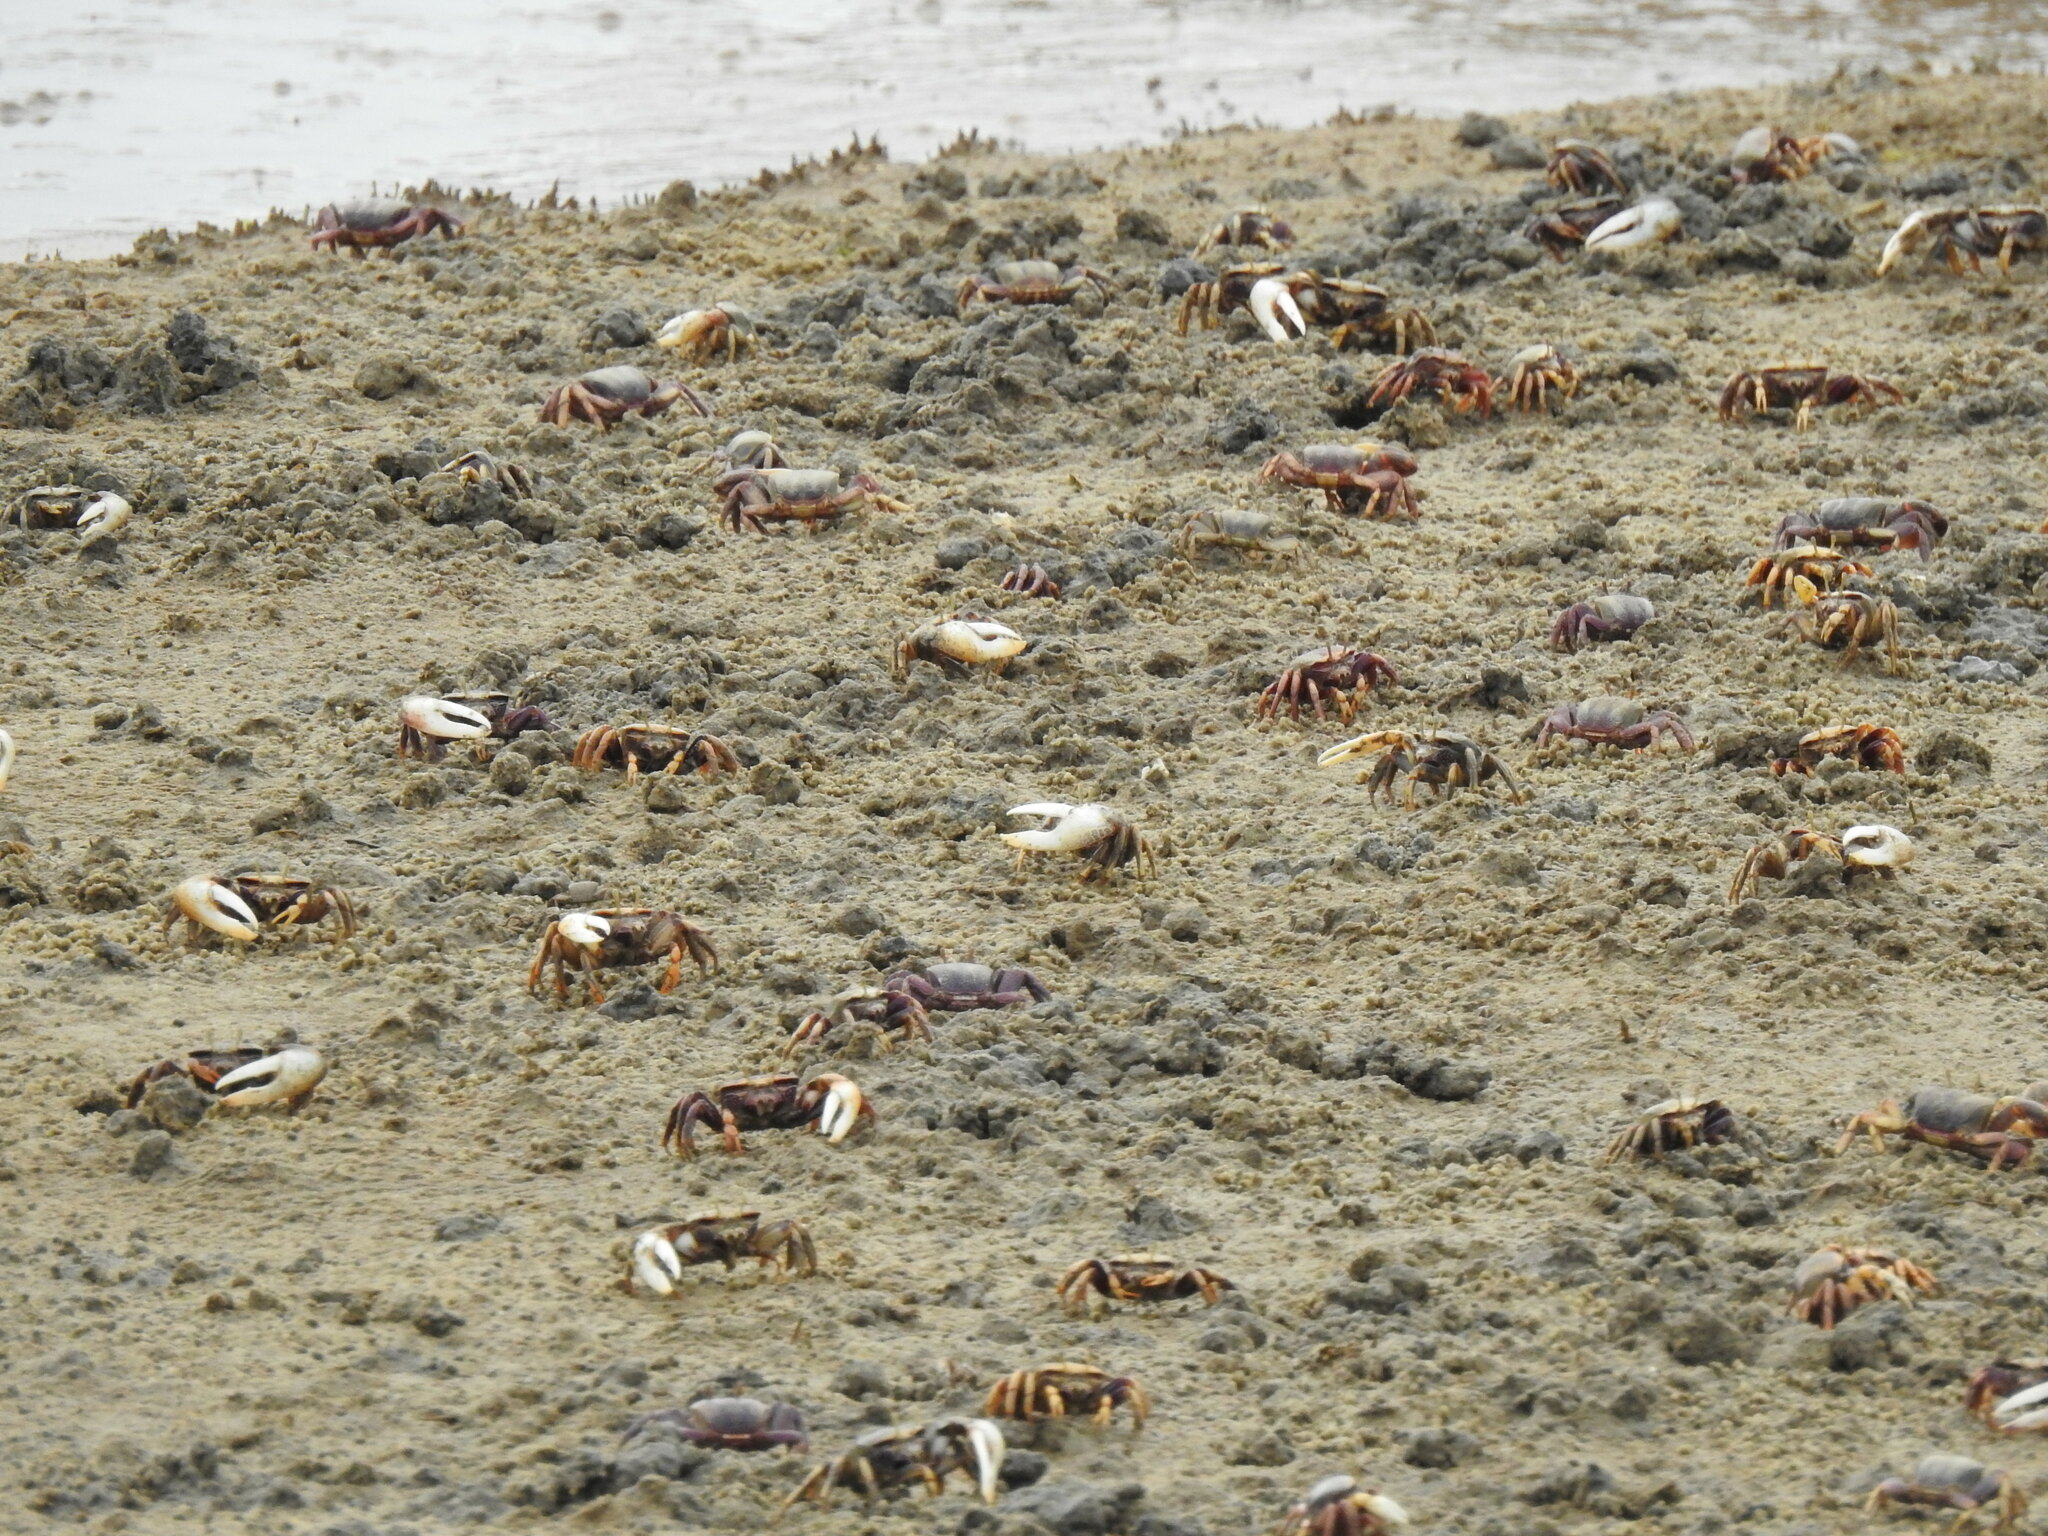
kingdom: Animalia
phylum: Arthropoda
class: Malacostraca
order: Decapoda
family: Ocypodidae
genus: Afruca
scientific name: Afruca tangeri
